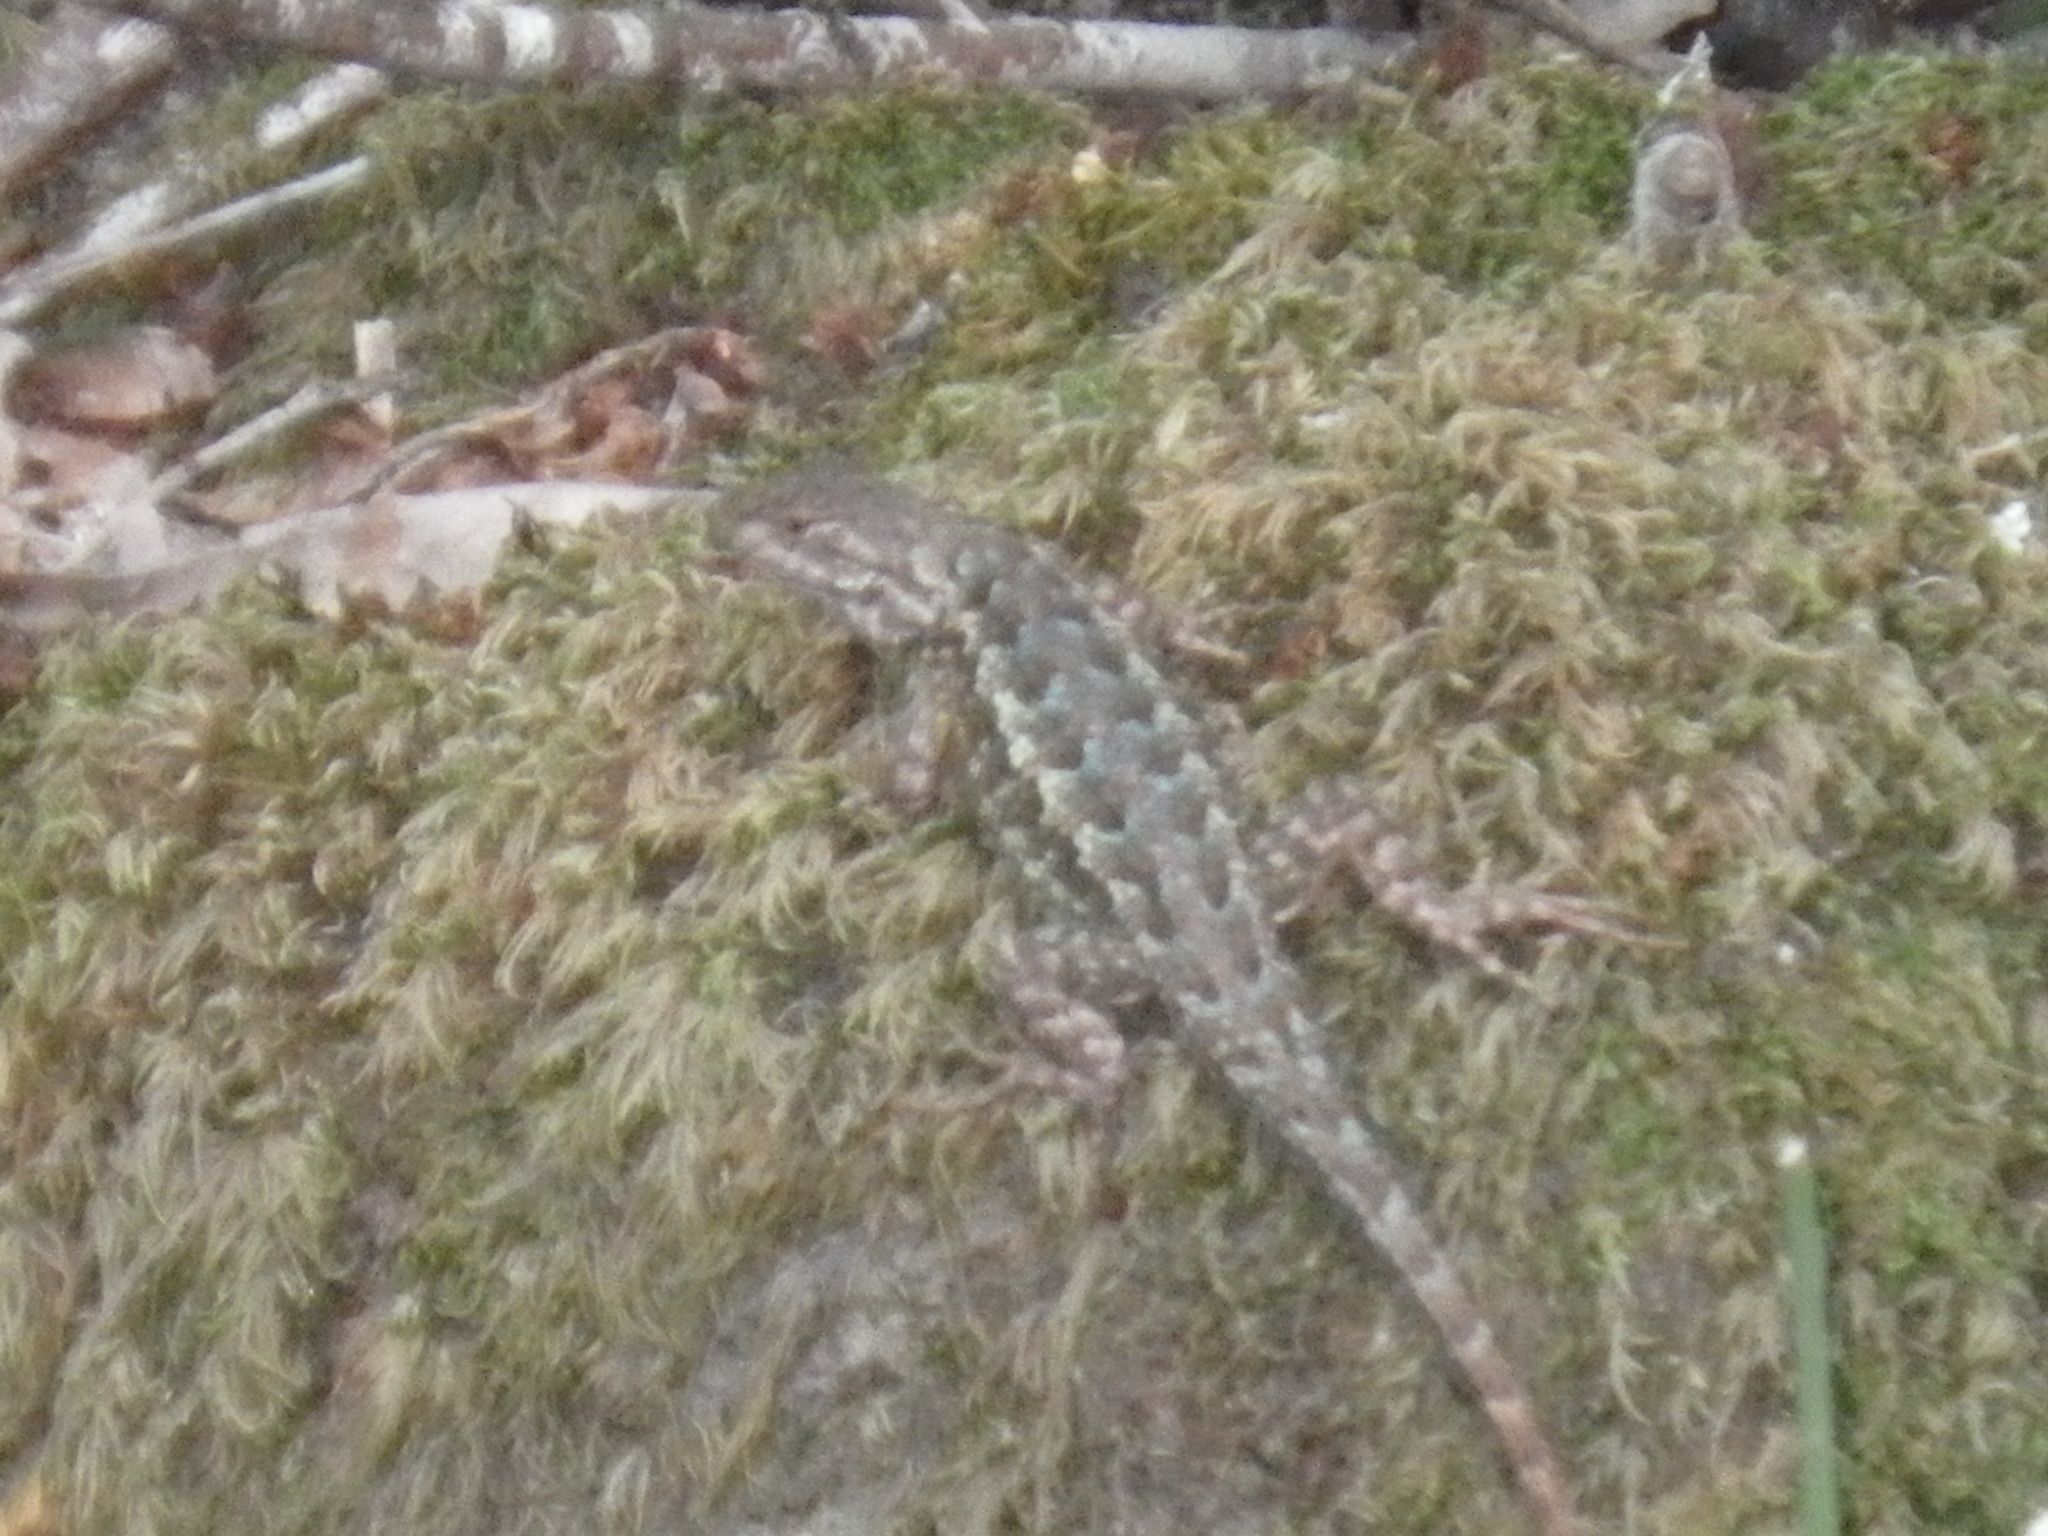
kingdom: Animalia
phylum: Chordata
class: Squamata
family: Phrynosomatidae
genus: Sceloporus
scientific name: Sceloporus occidentalis
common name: Western fence lizard
